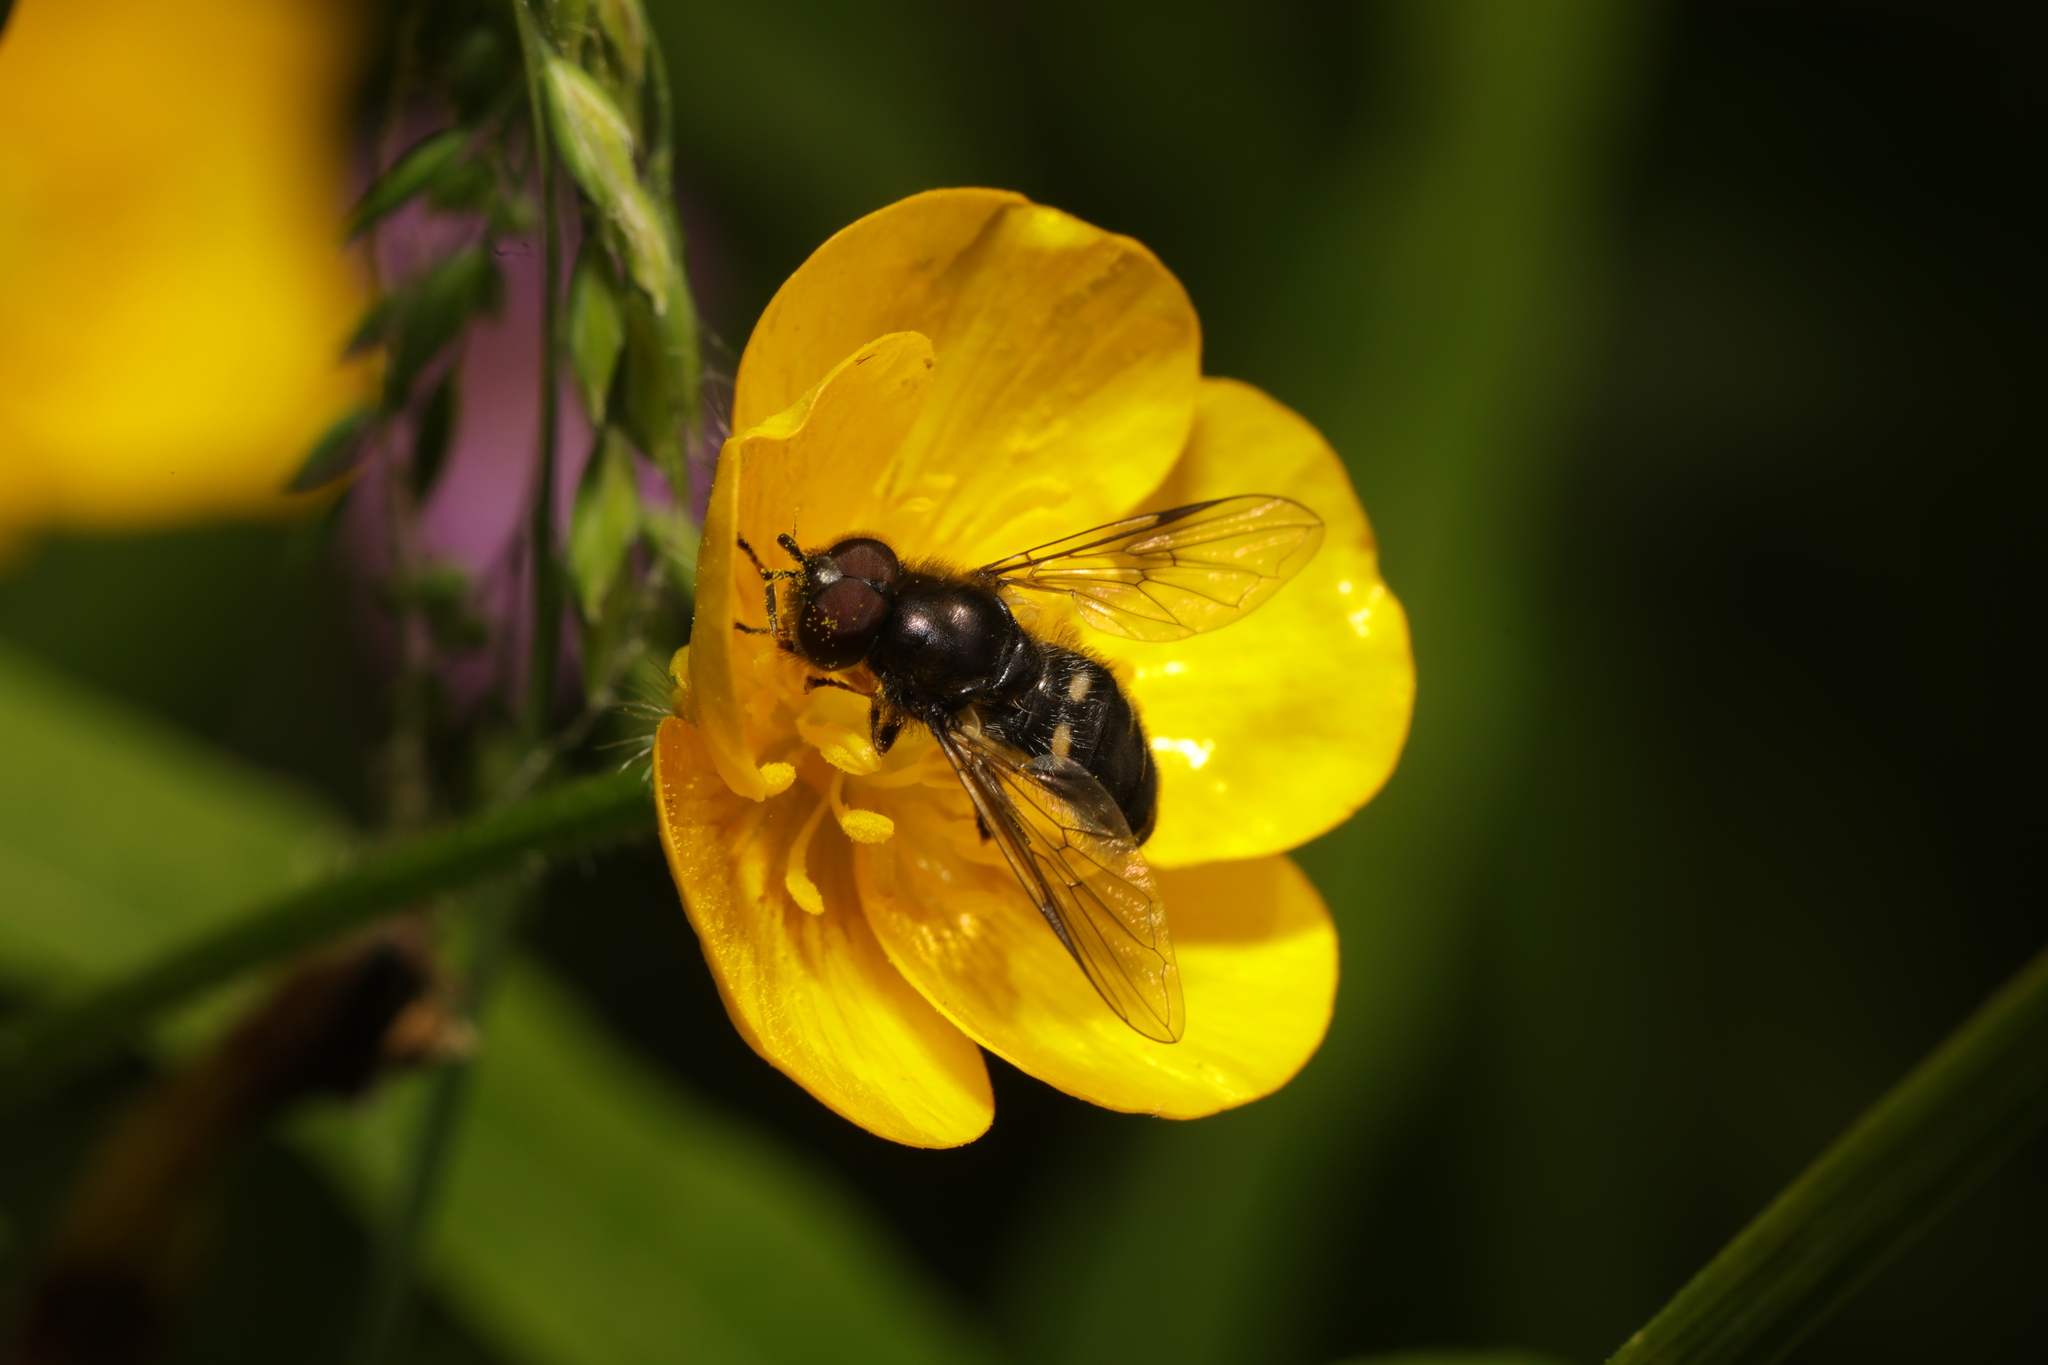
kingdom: Animalia
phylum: Arthropoda
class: Insecta
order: Diptera
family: Syrphidae
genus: Pipiza
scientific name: Pipiza
